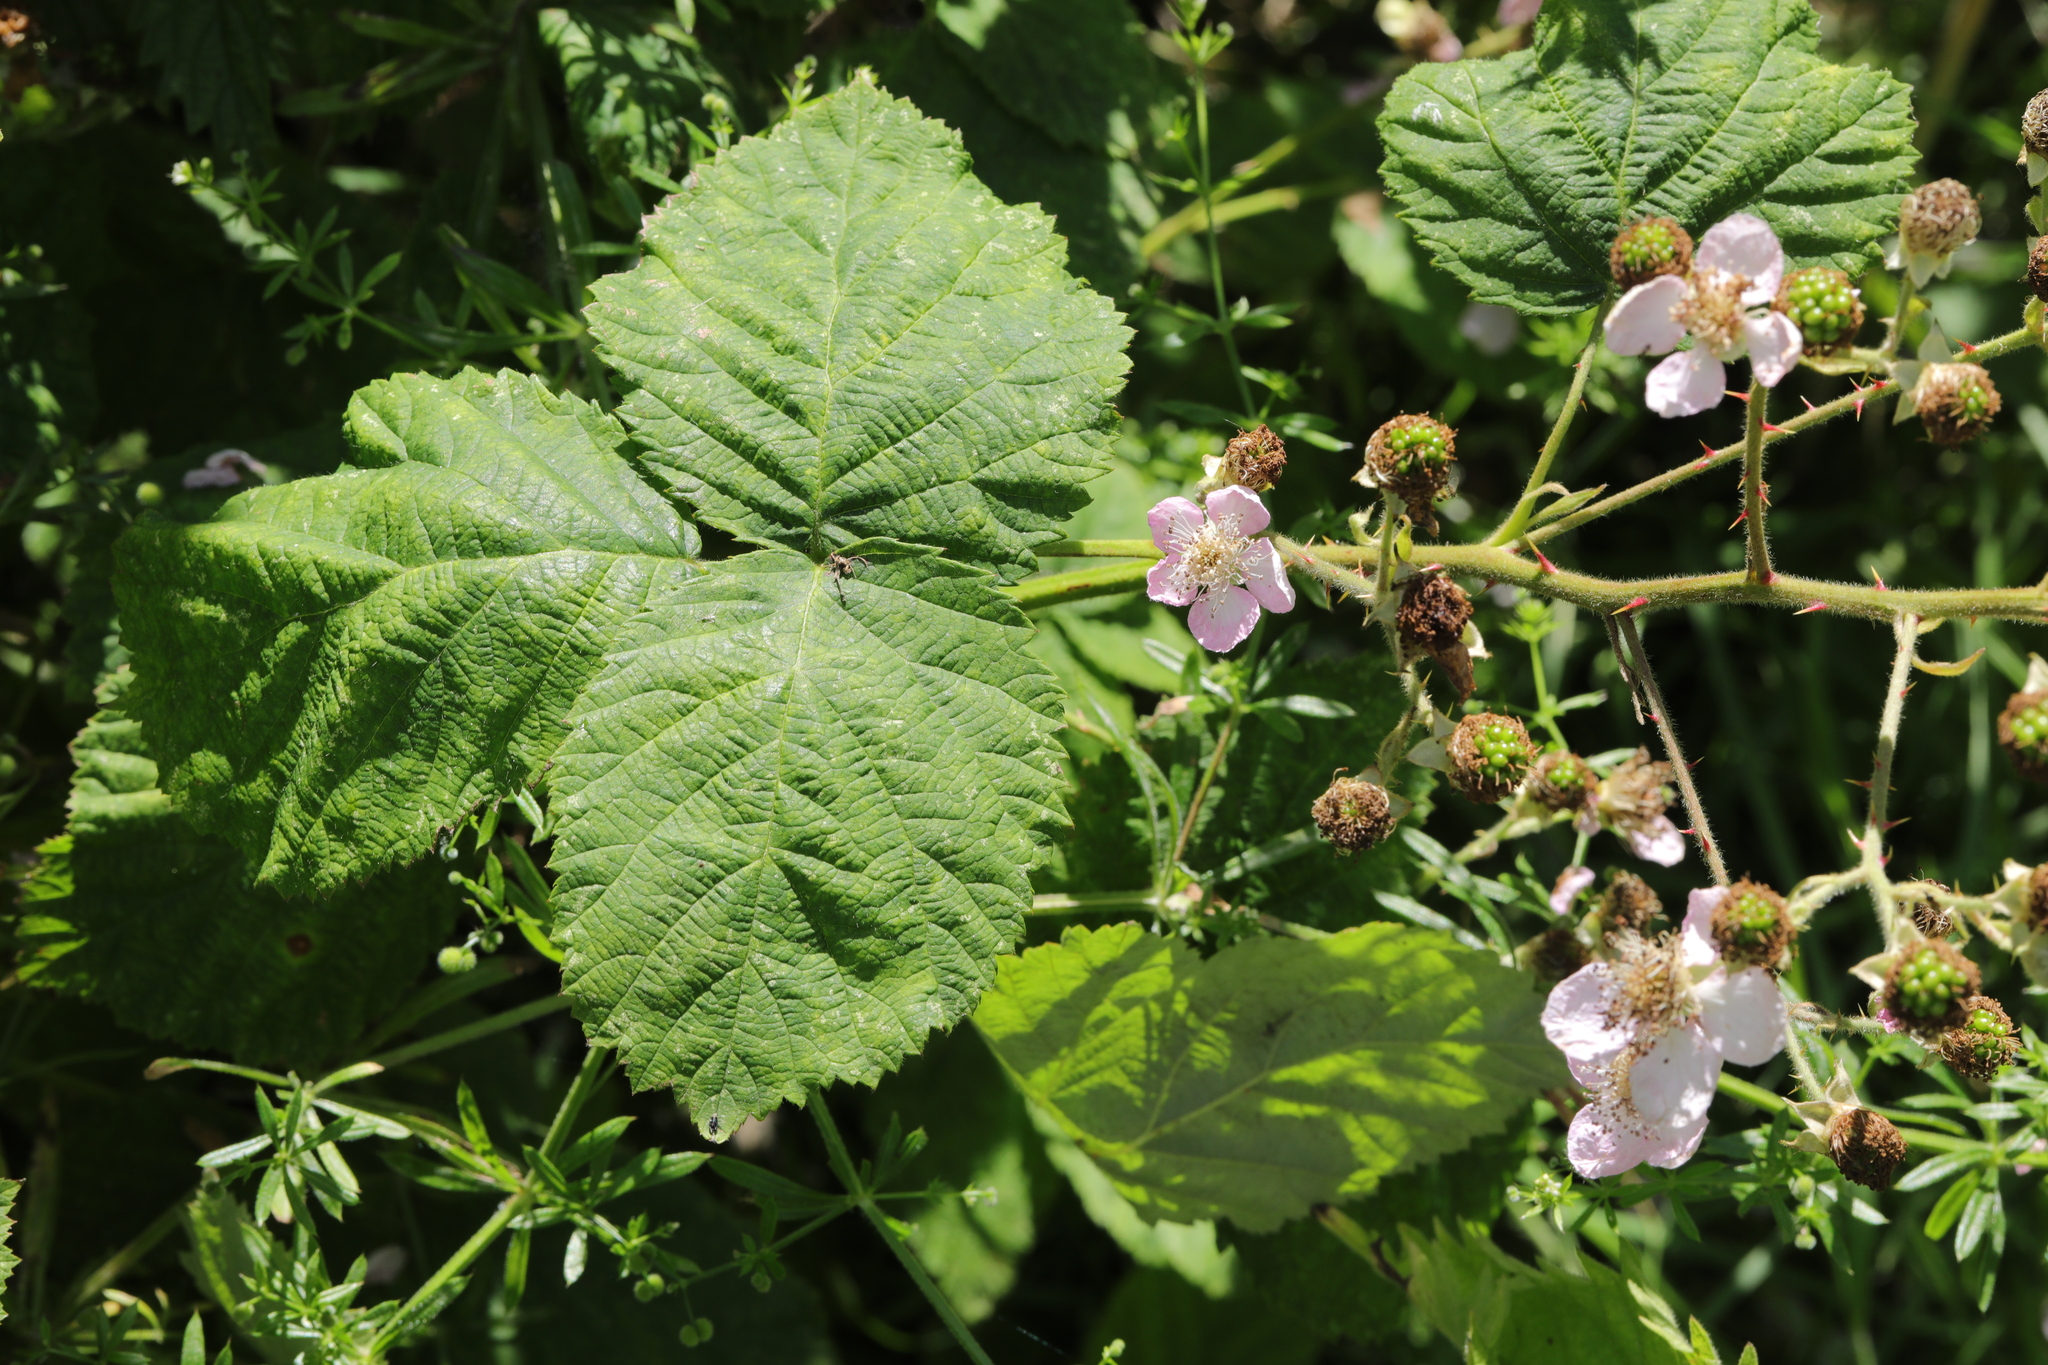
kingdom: Plantae
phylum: Tracheophyta
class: Magnoliopsida
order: Rosales
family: Rosaceae
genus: Rubus
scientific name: Rubus armeniacus
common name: Himalayan blackberry
